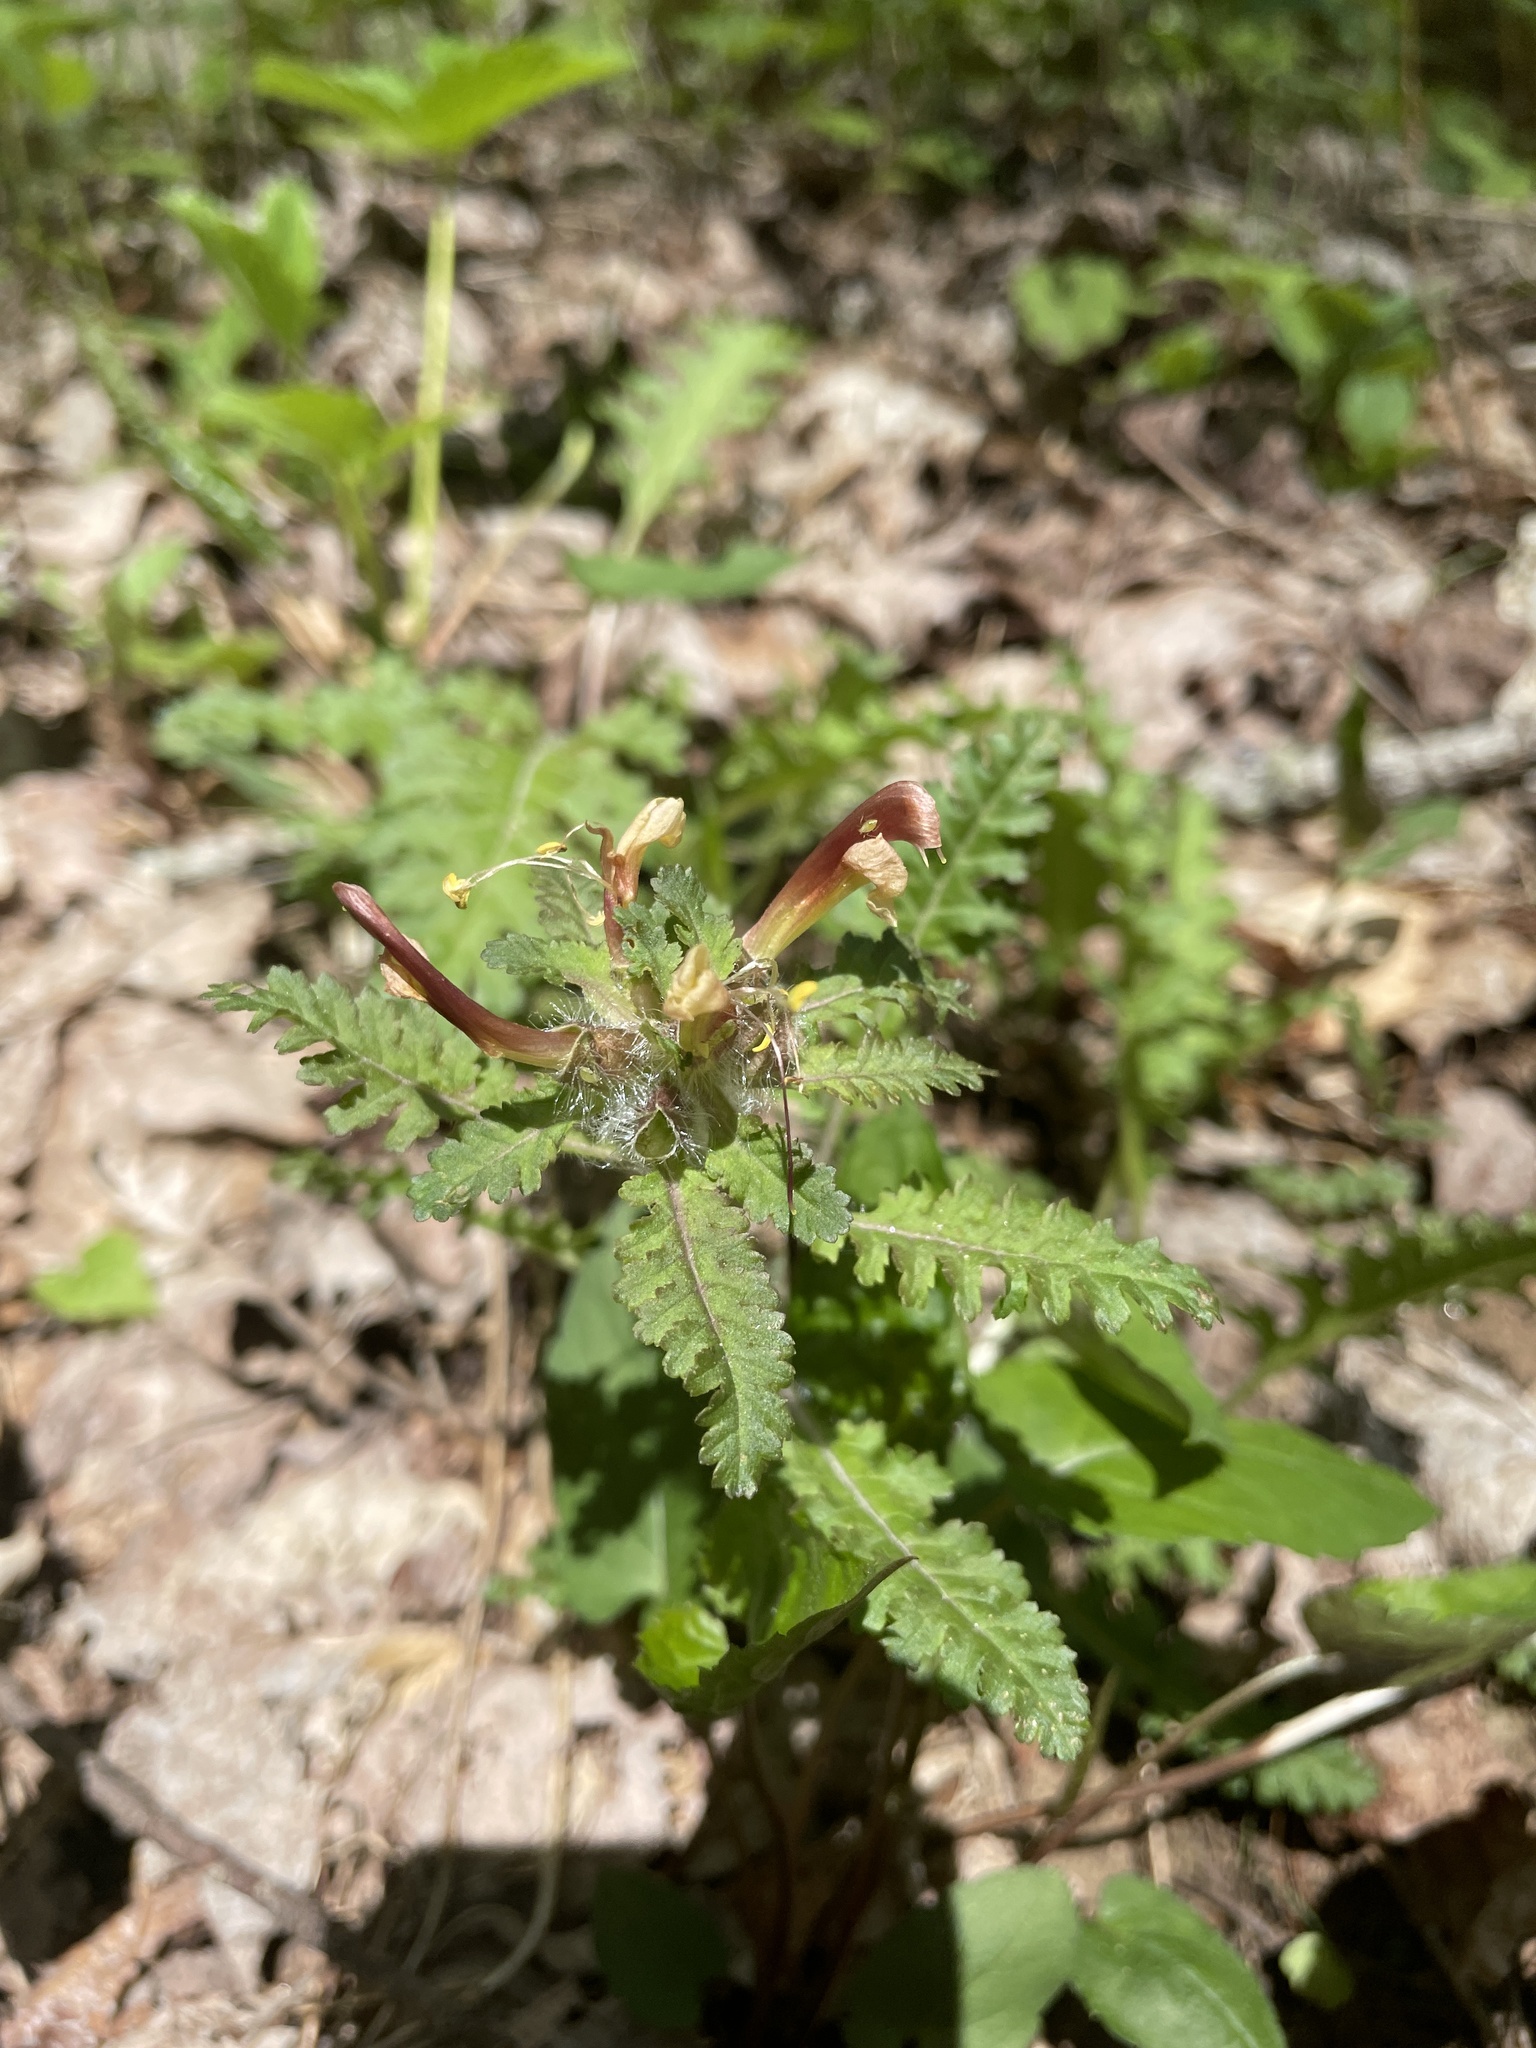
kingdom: Plantae
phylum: Tracheophyta
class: Magnoliopsida
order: Lamiales
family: Orobanchaceae
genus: Pedicularis
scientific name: Pedicularis canadensis
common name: Early lousewort
